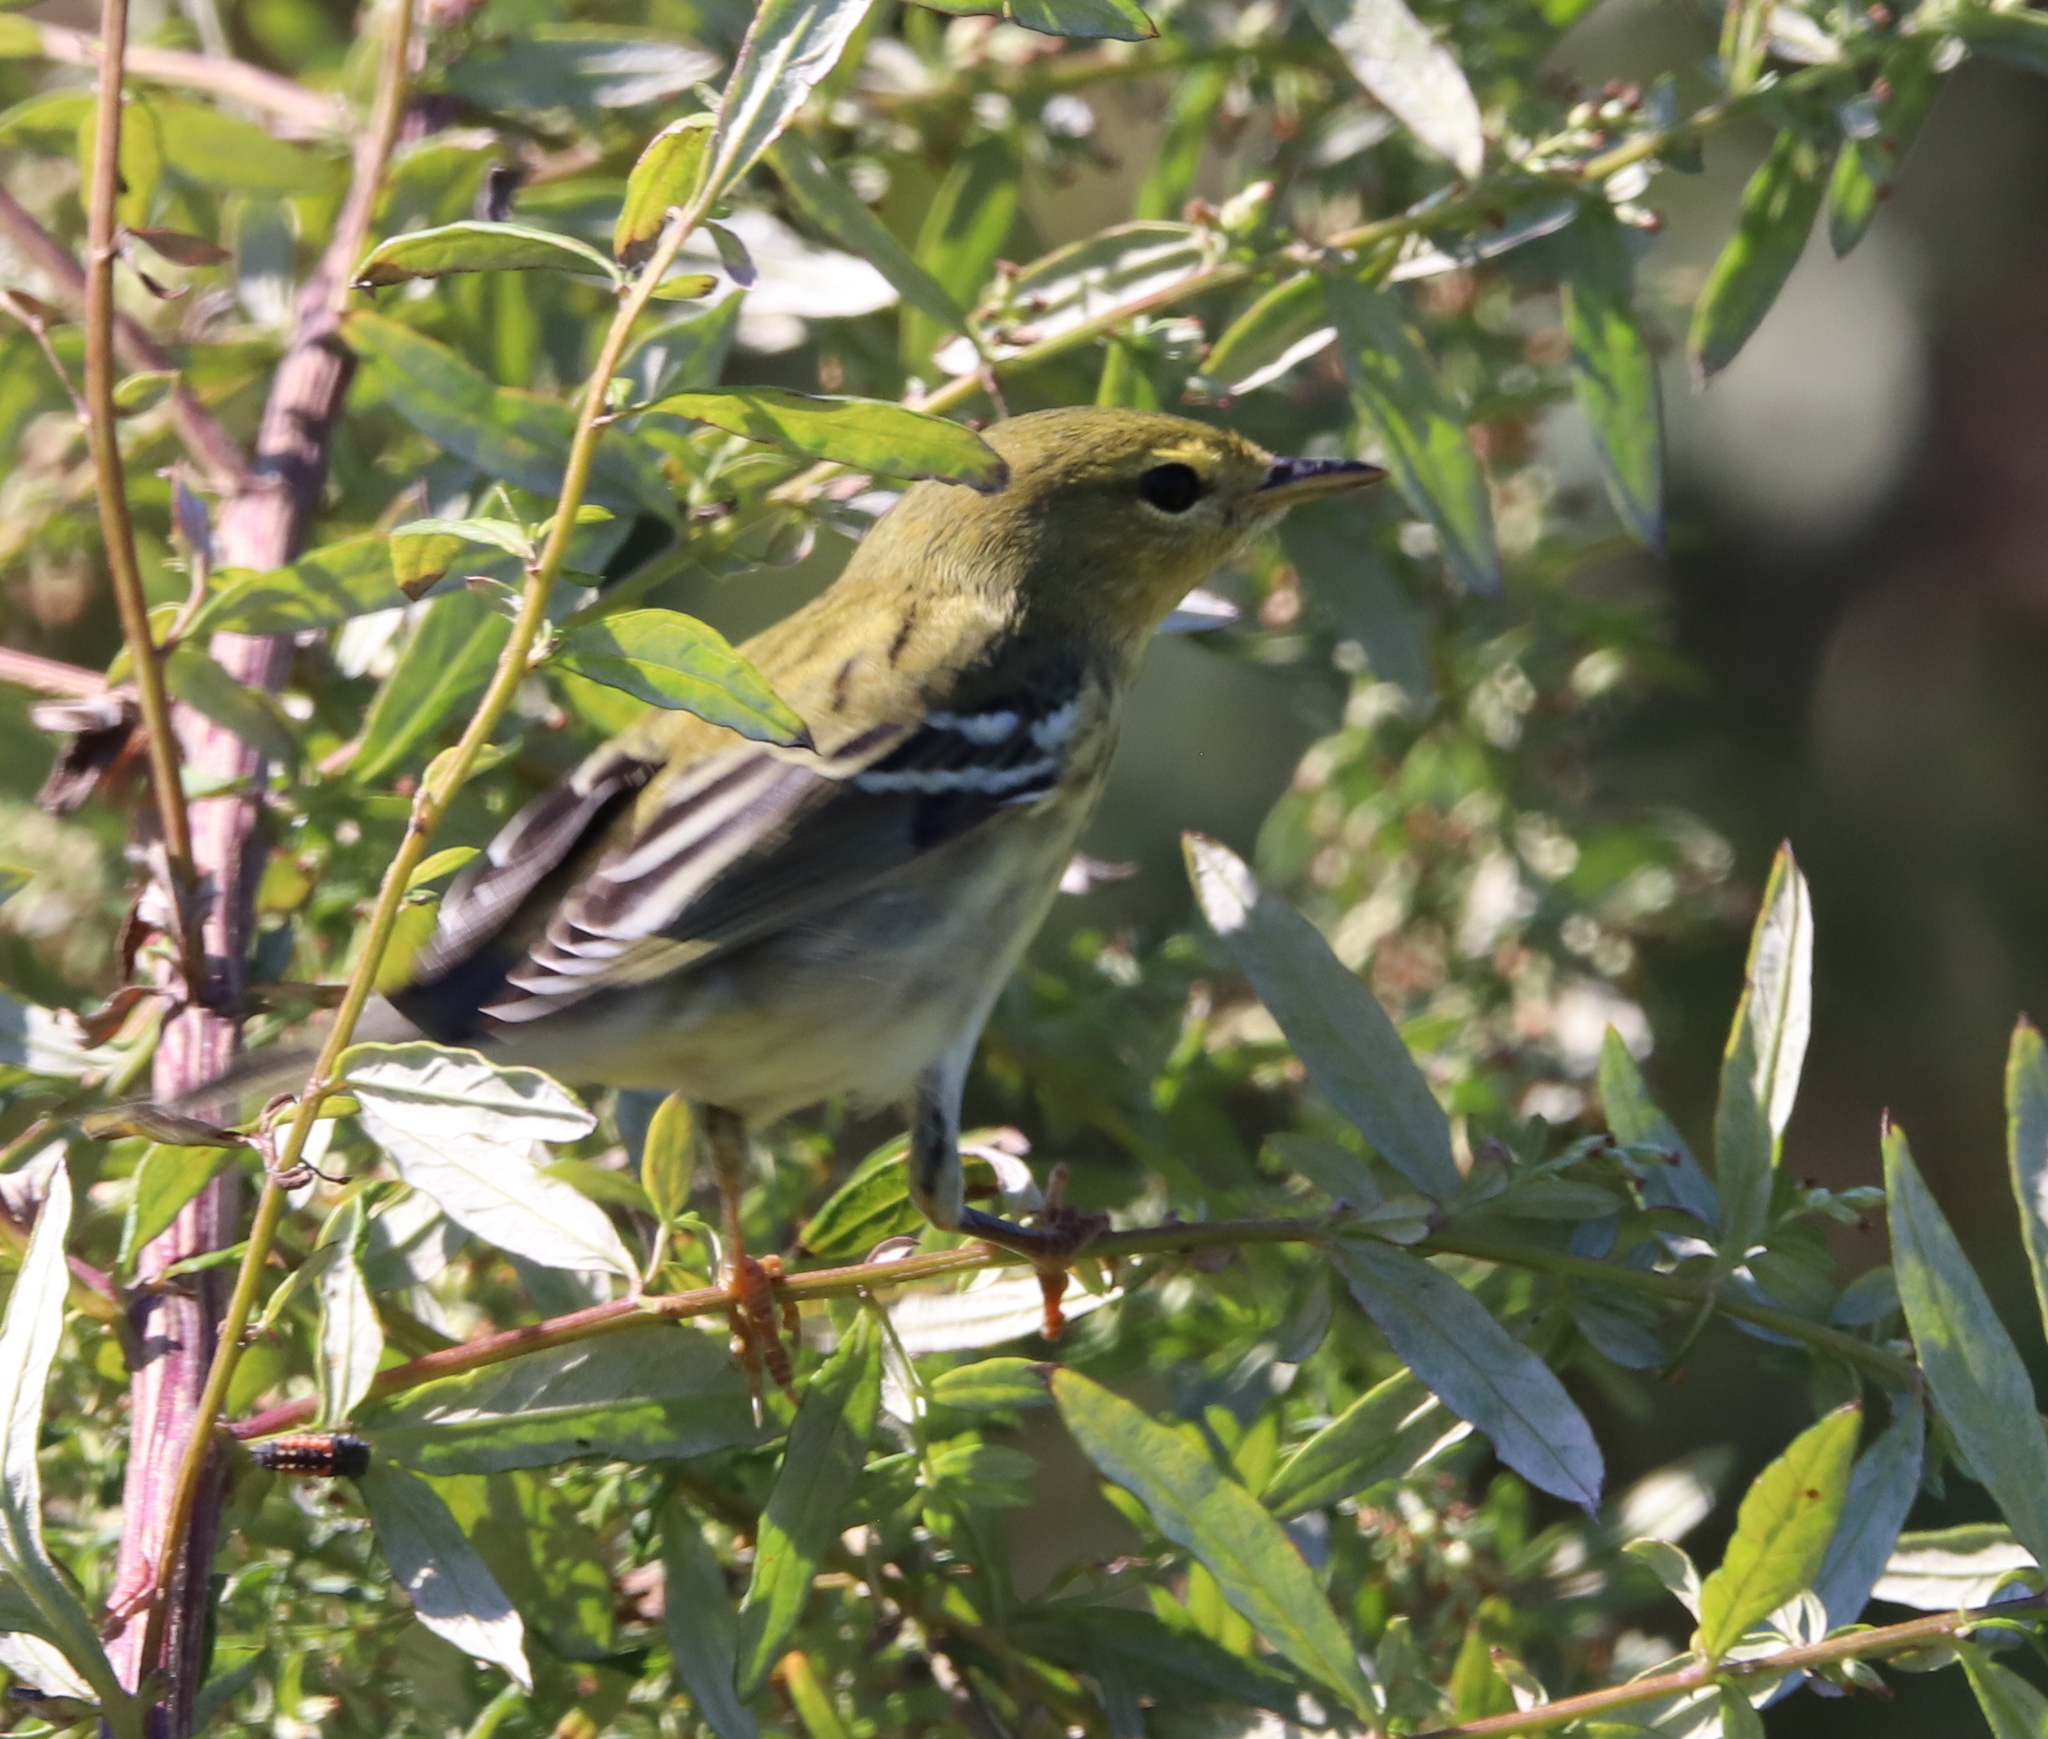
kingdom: Animalia
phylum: Chordata
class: Aves
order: Passeriformes
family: Parulidae
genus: Setophaga
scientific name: Setophaga striata
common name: Blackpoll warbler
